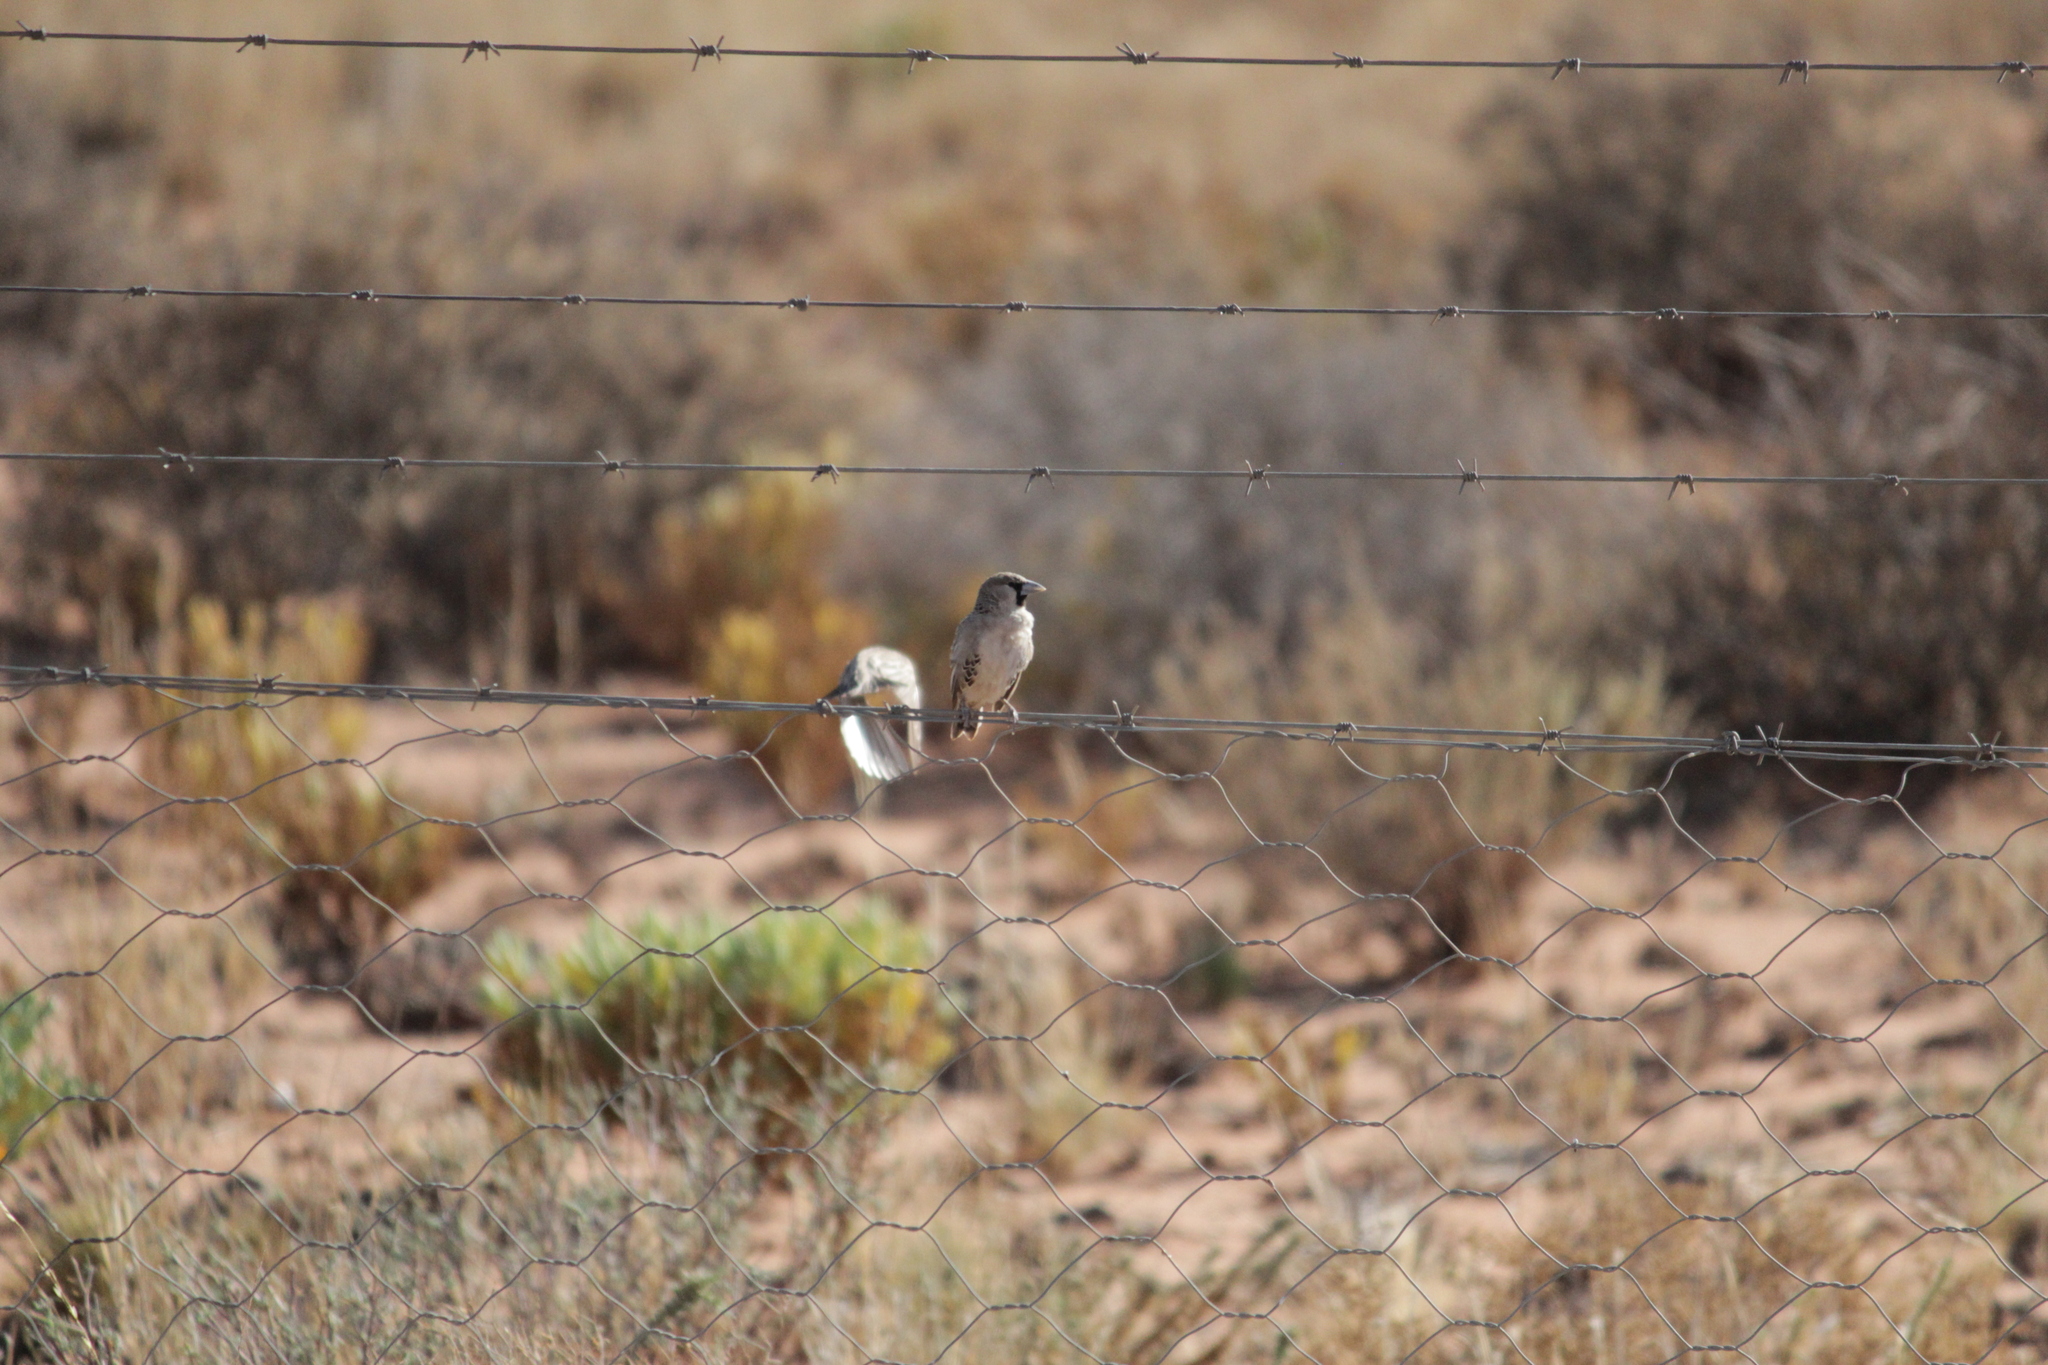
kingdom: Animalia
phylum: Chordata
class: Aves
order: Passeriformes
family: Passeridae
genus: Philetairus
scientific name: Philetairus socius
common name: Sociable weaver
